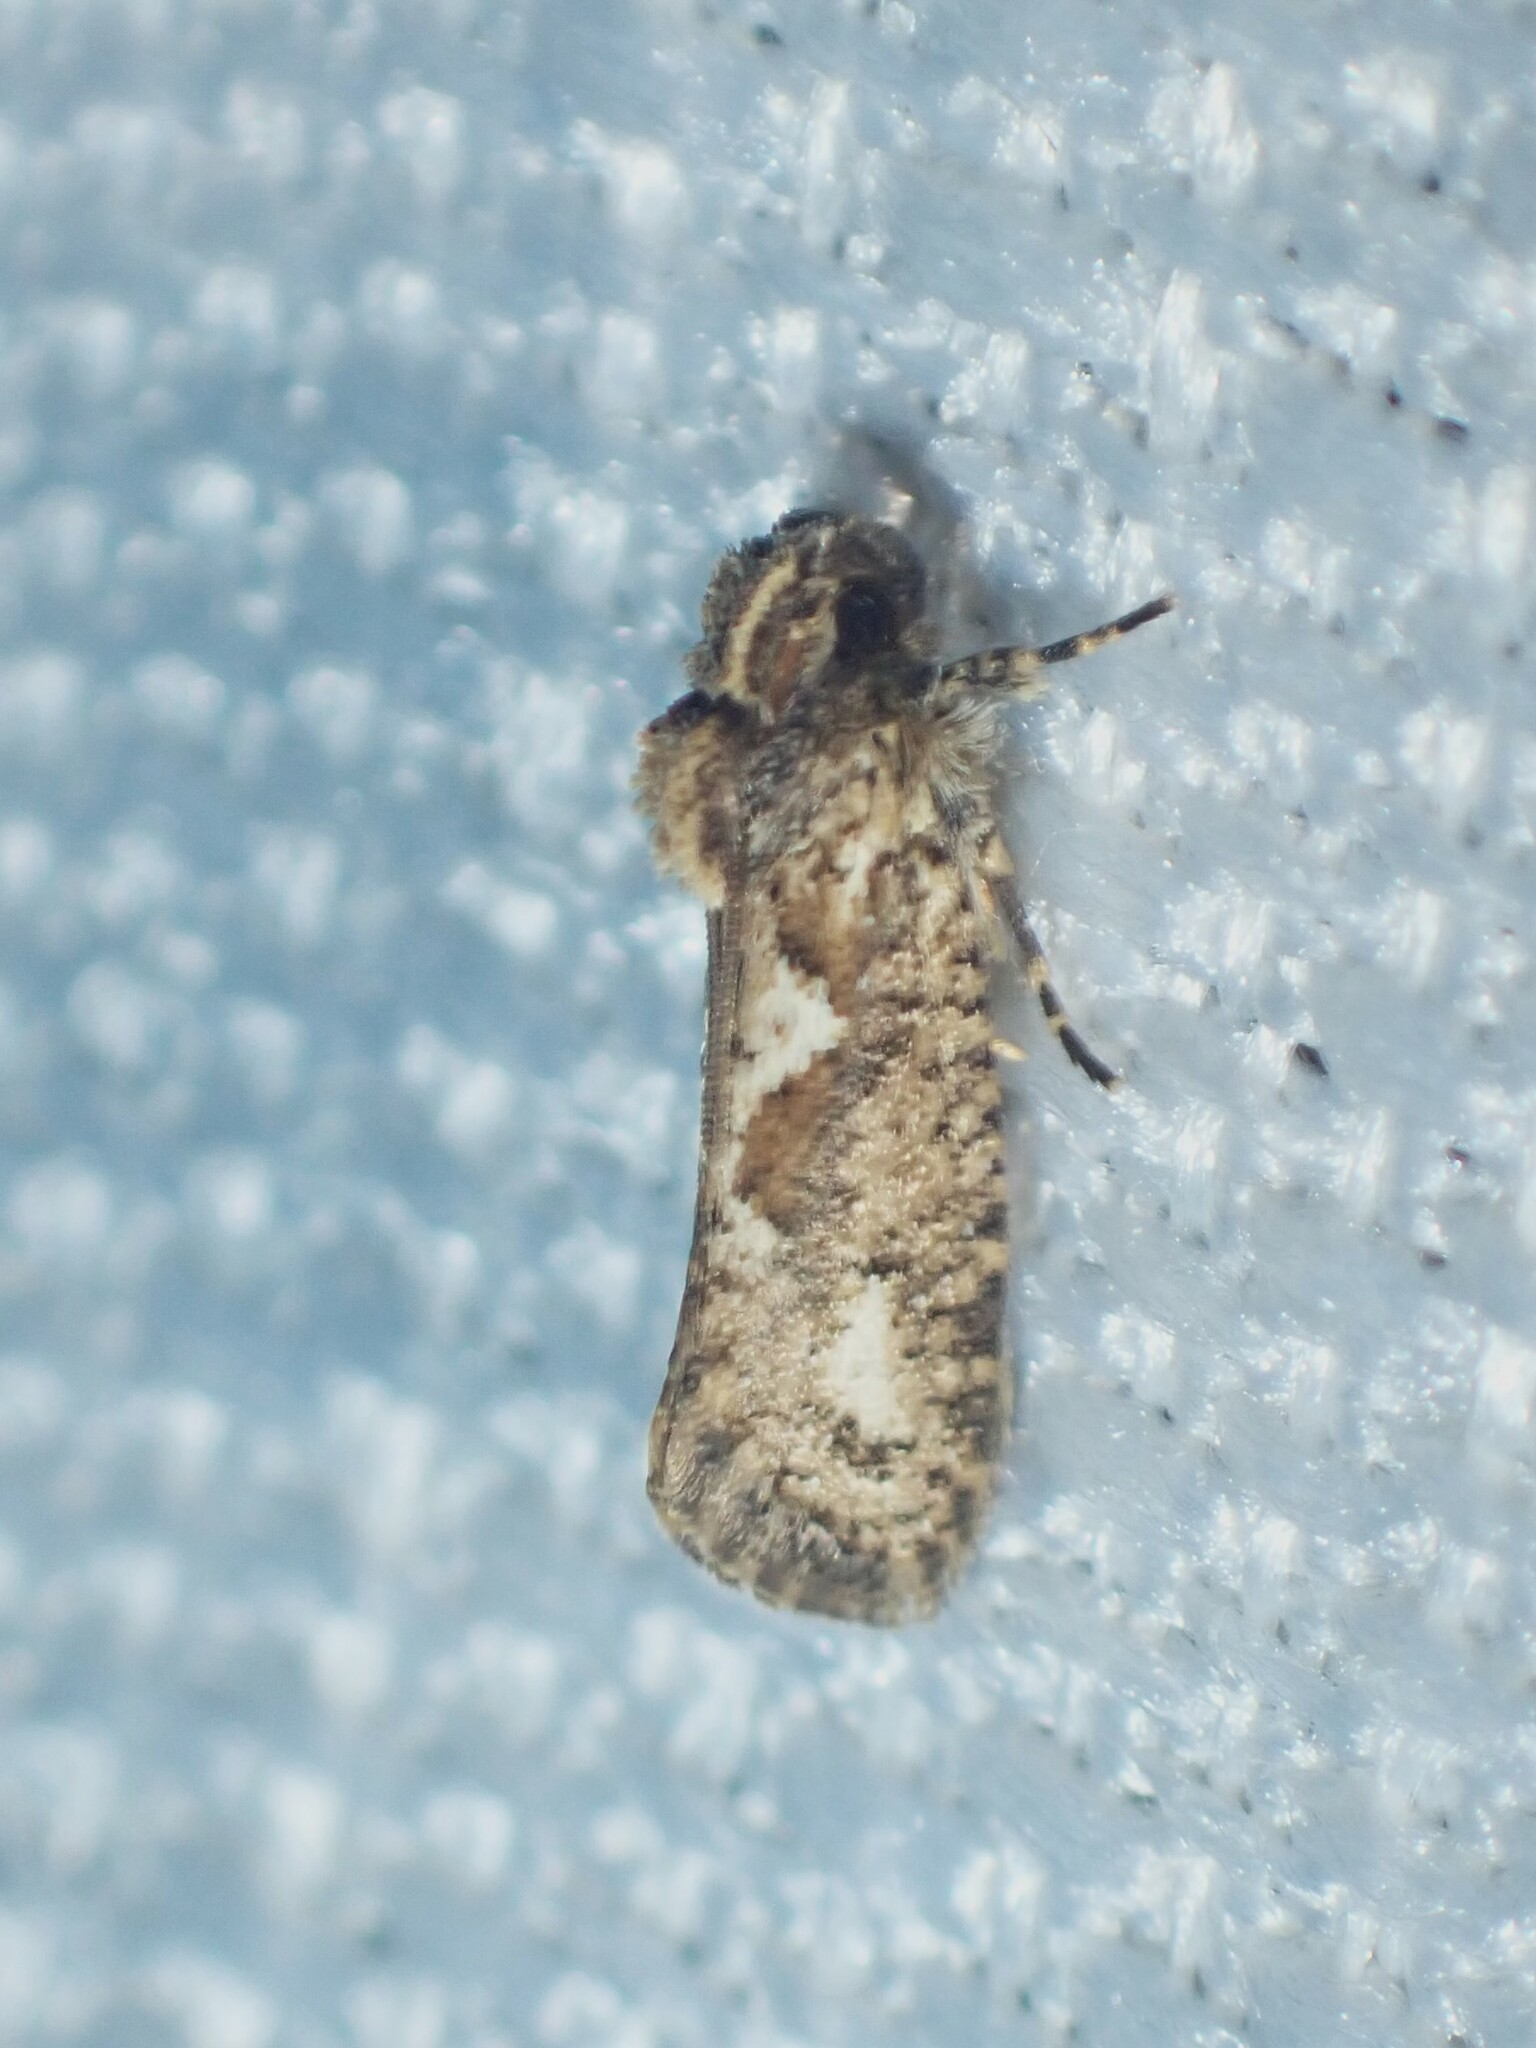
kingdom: Animalia
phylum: Arthropoda
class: Insecta
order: Lepidoptera
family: Tineidae
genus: Acrolophus
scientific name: Acrolophus walsinghami
